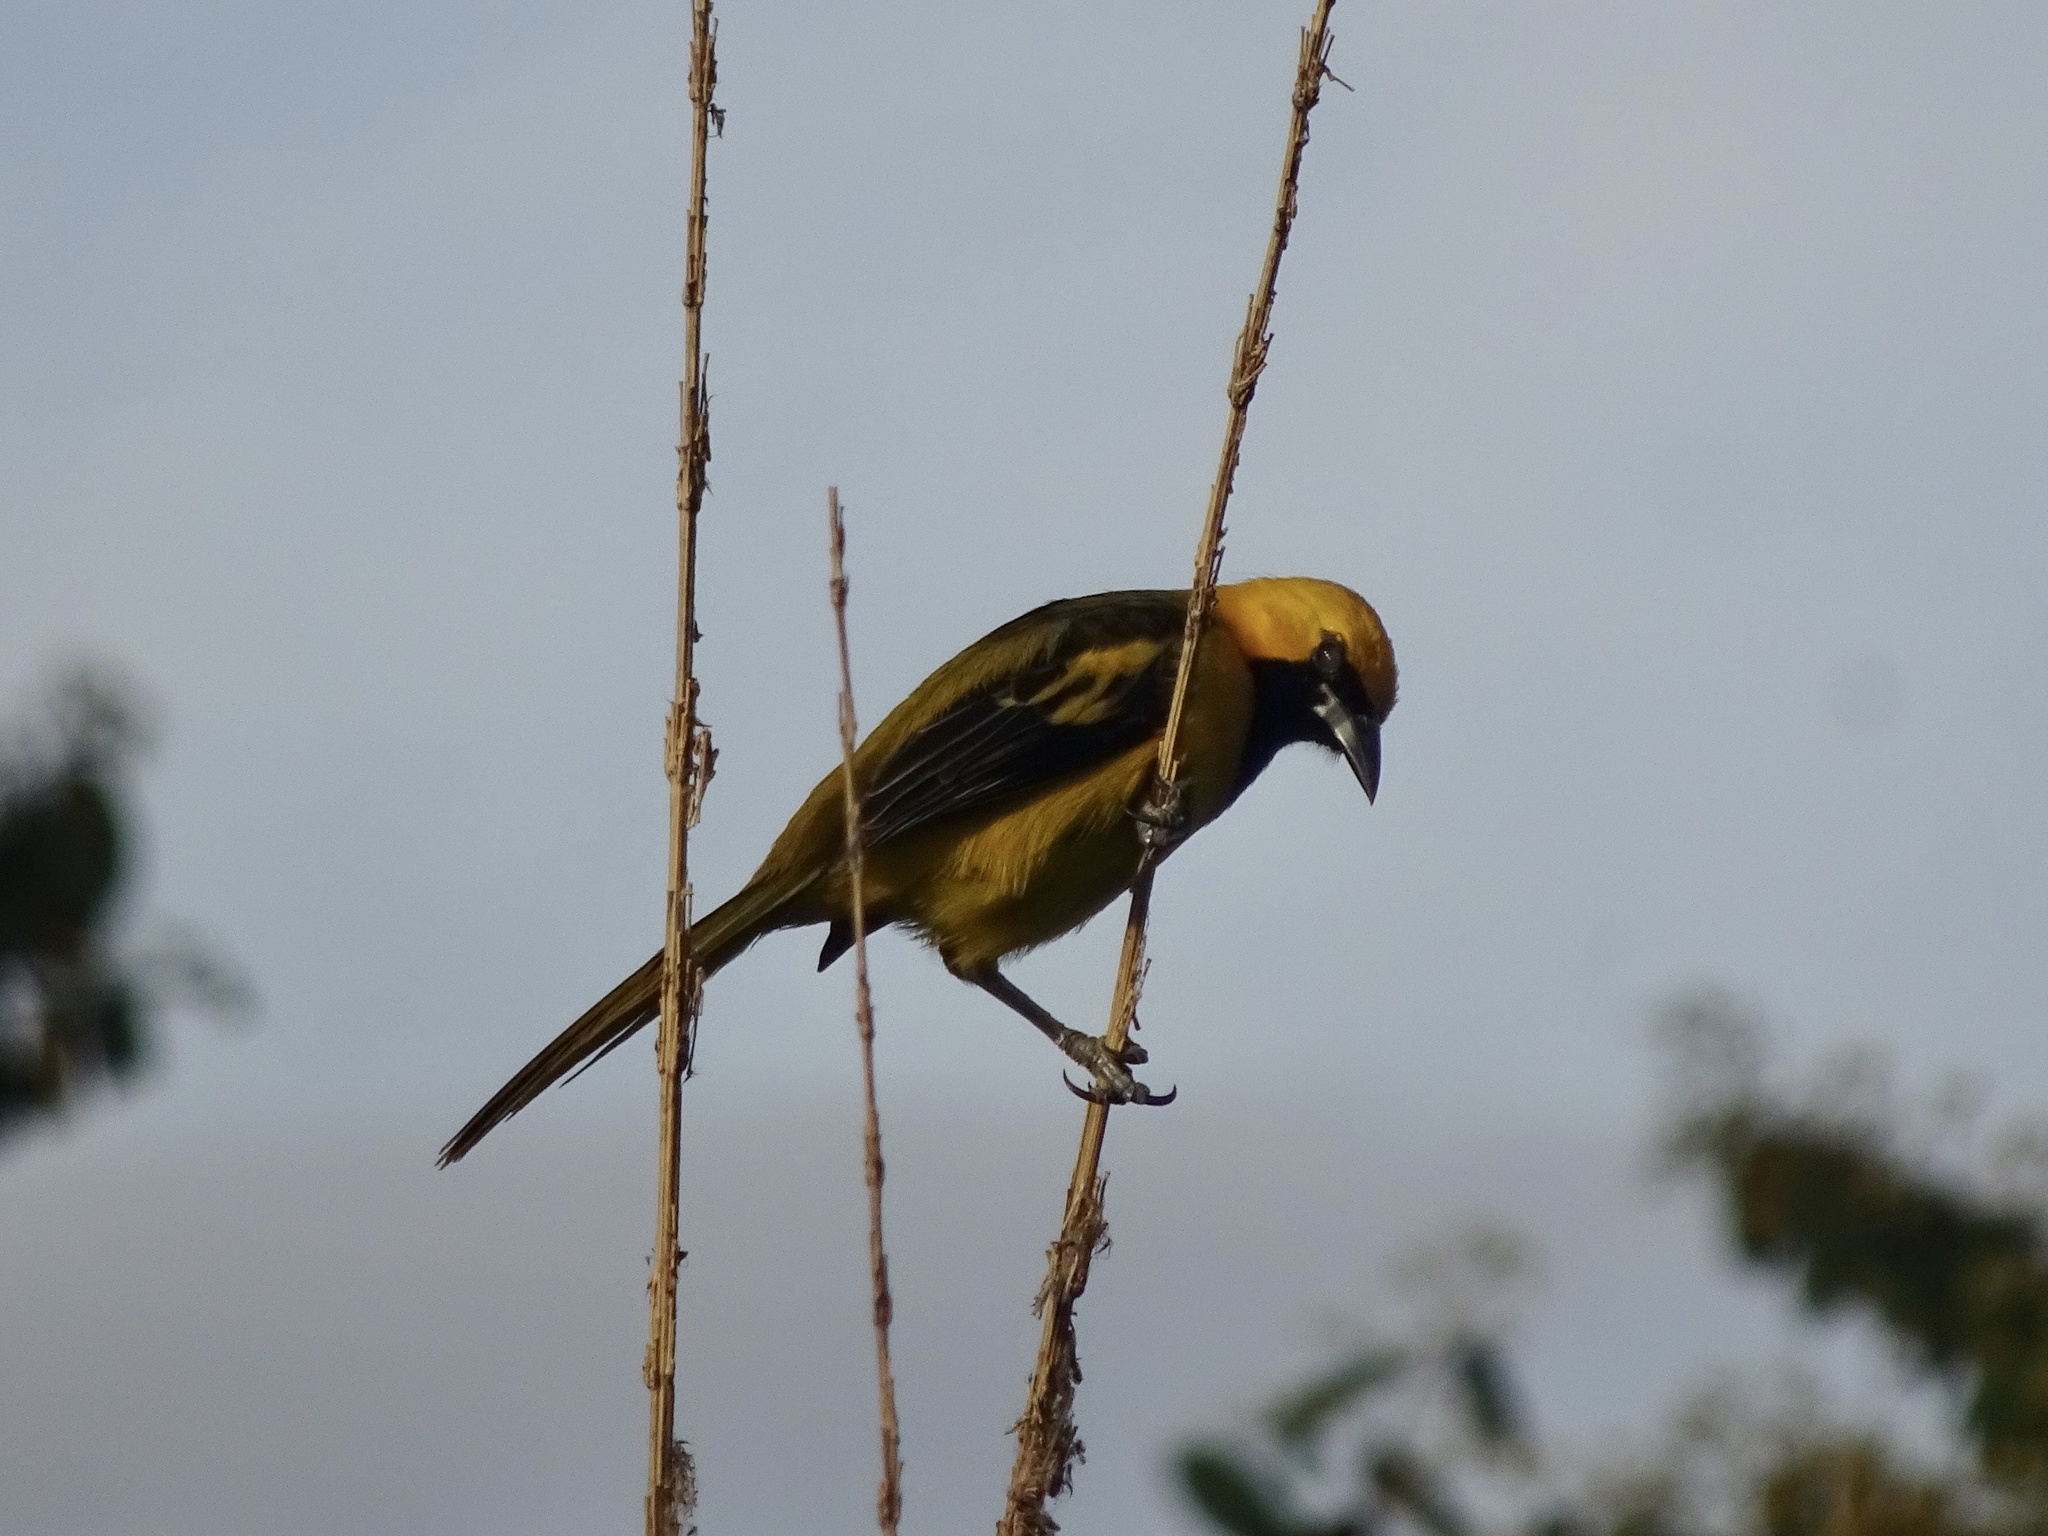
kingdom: Animalia
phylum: Chordata
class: Aves
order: Passeriformes
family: Icteridae
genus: Icterus
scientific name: Icterus mesomelas
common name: Yellow-tailed oriole
